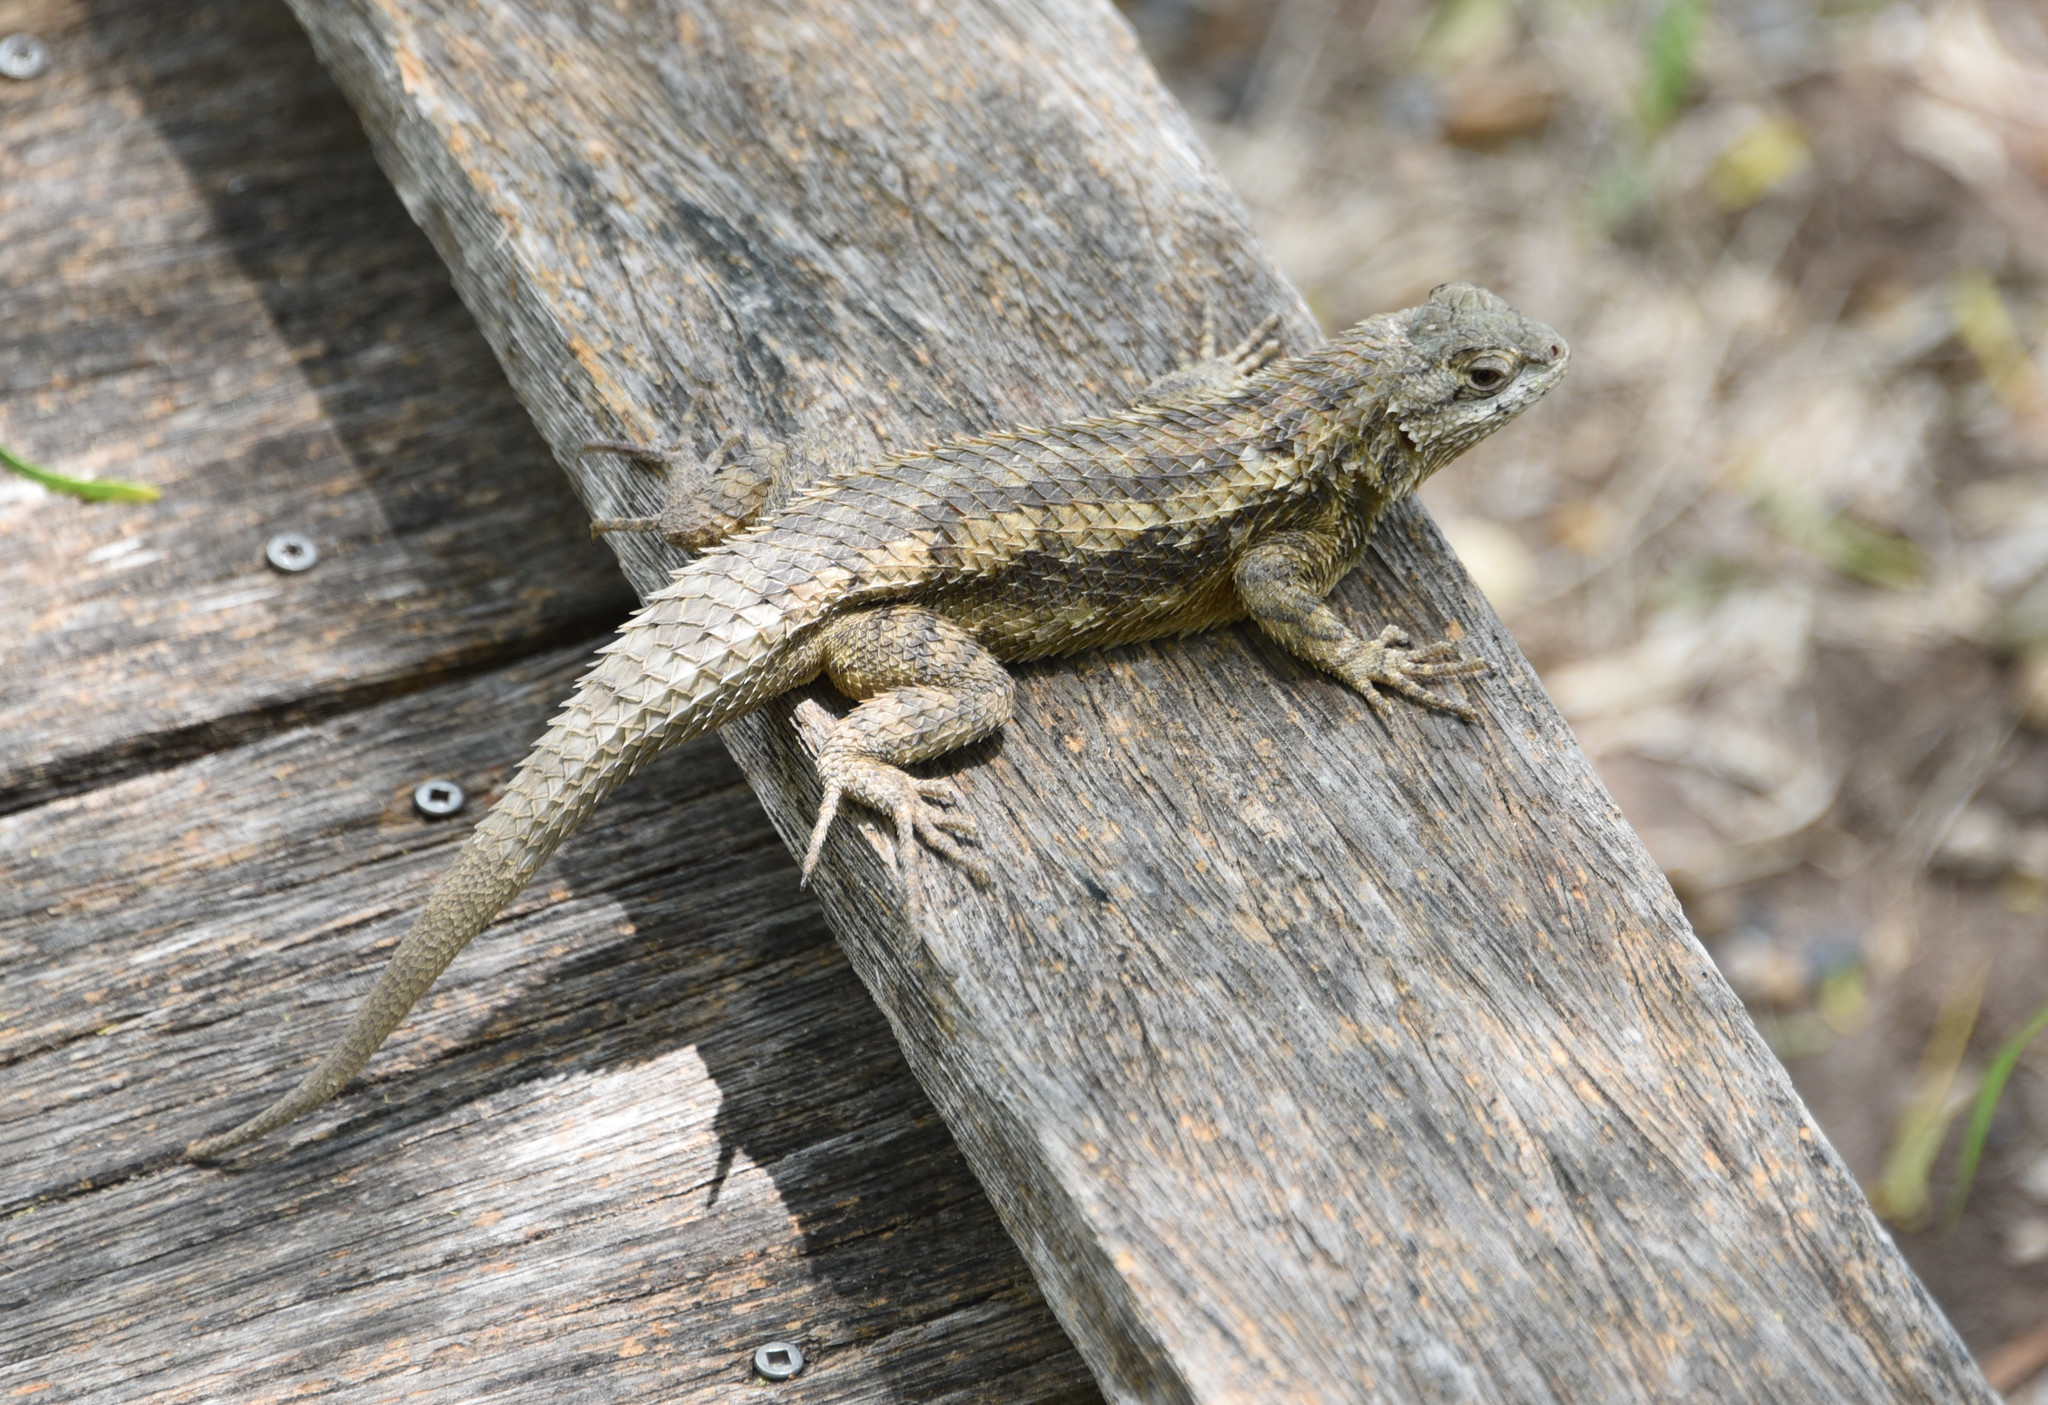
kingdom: Animalia
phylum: Chordata
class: Squamata
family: Phrynosomatidae
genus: Sceloporus
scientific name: Sceloporus olivaceus
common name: Texas spiny lizard
